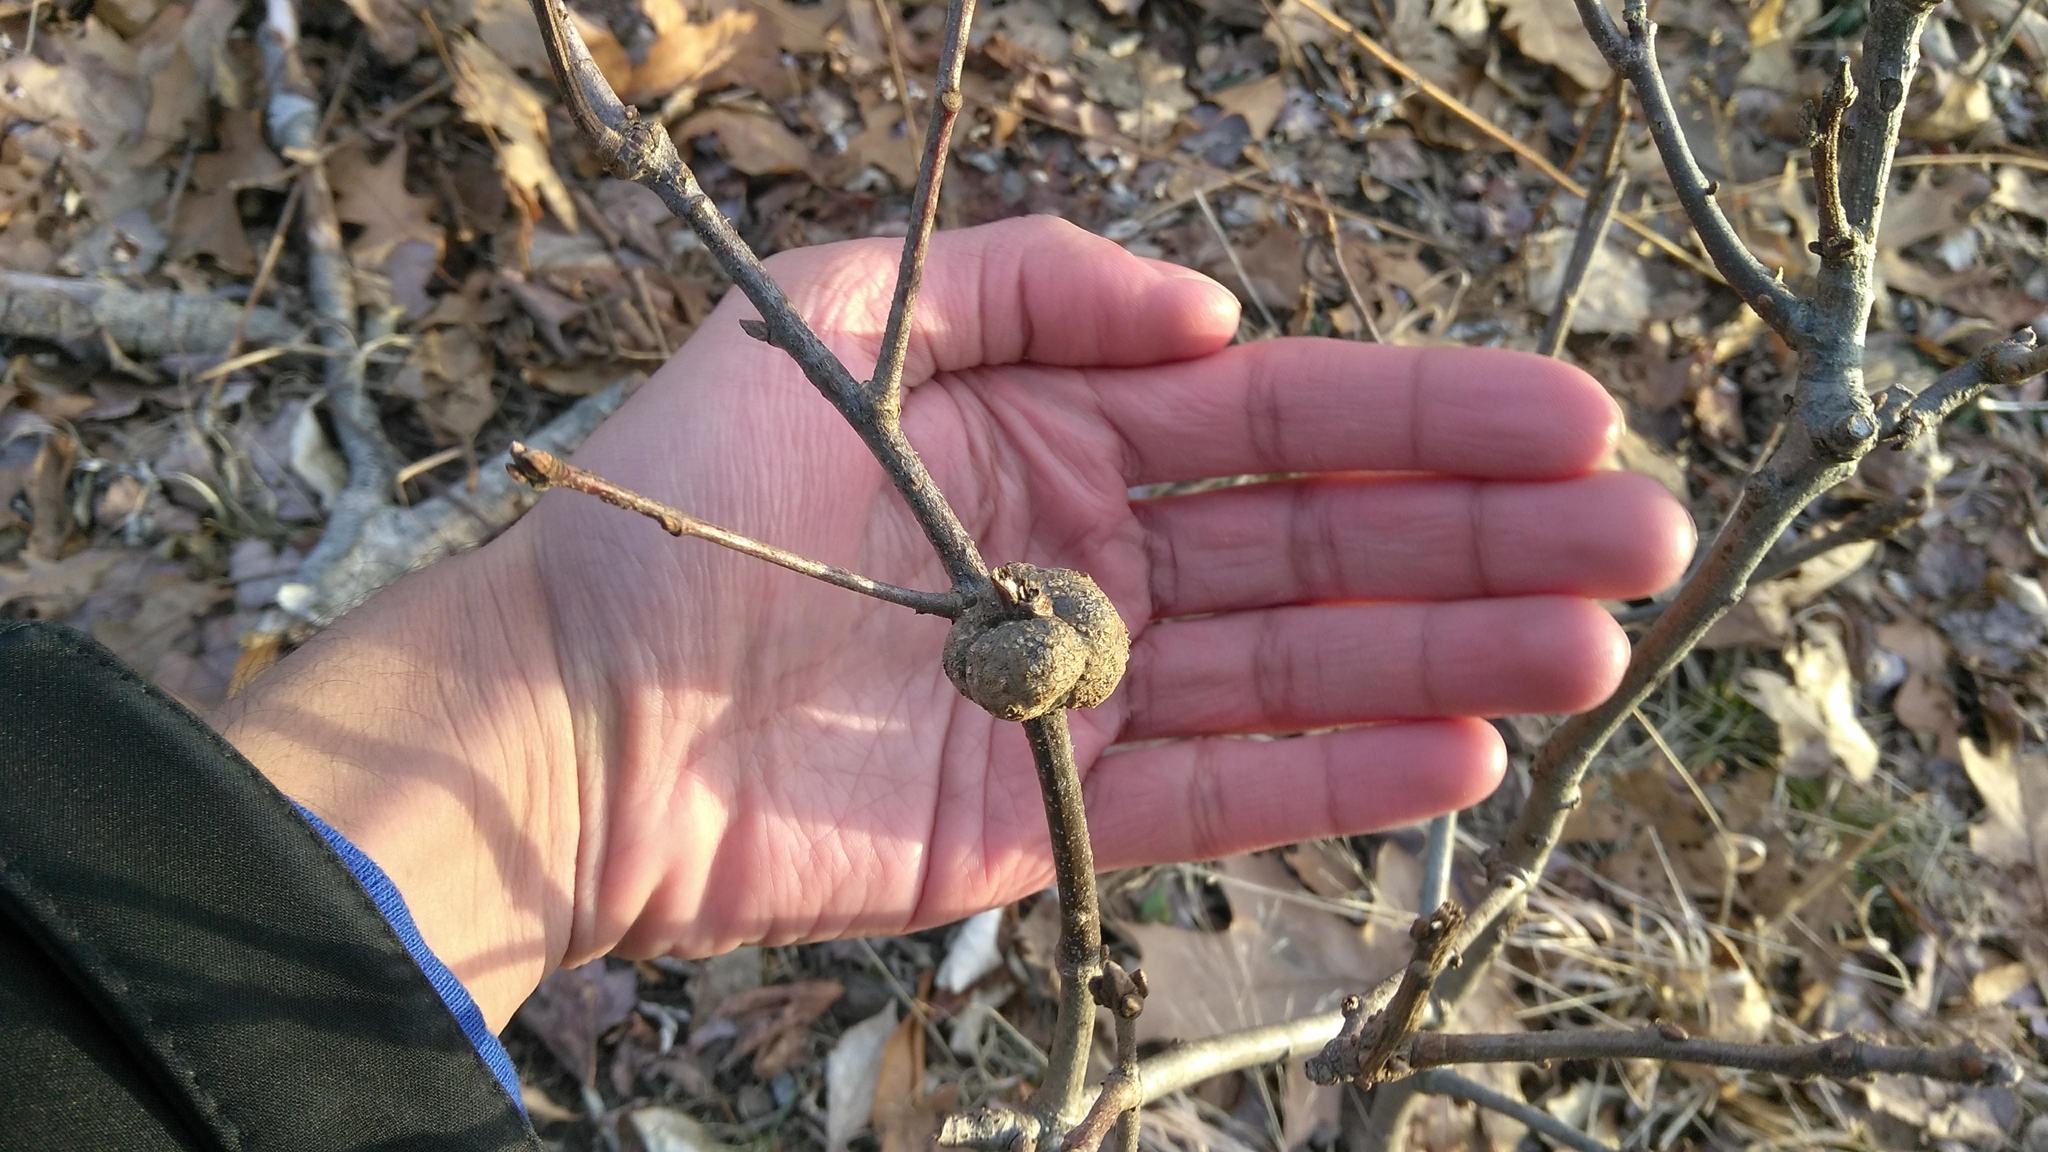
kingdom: Animalia
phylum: Arthropoda
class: Insecta
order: Hymenoptera
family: Cynipidae
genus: Callirhytis
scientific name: Callirhytis
